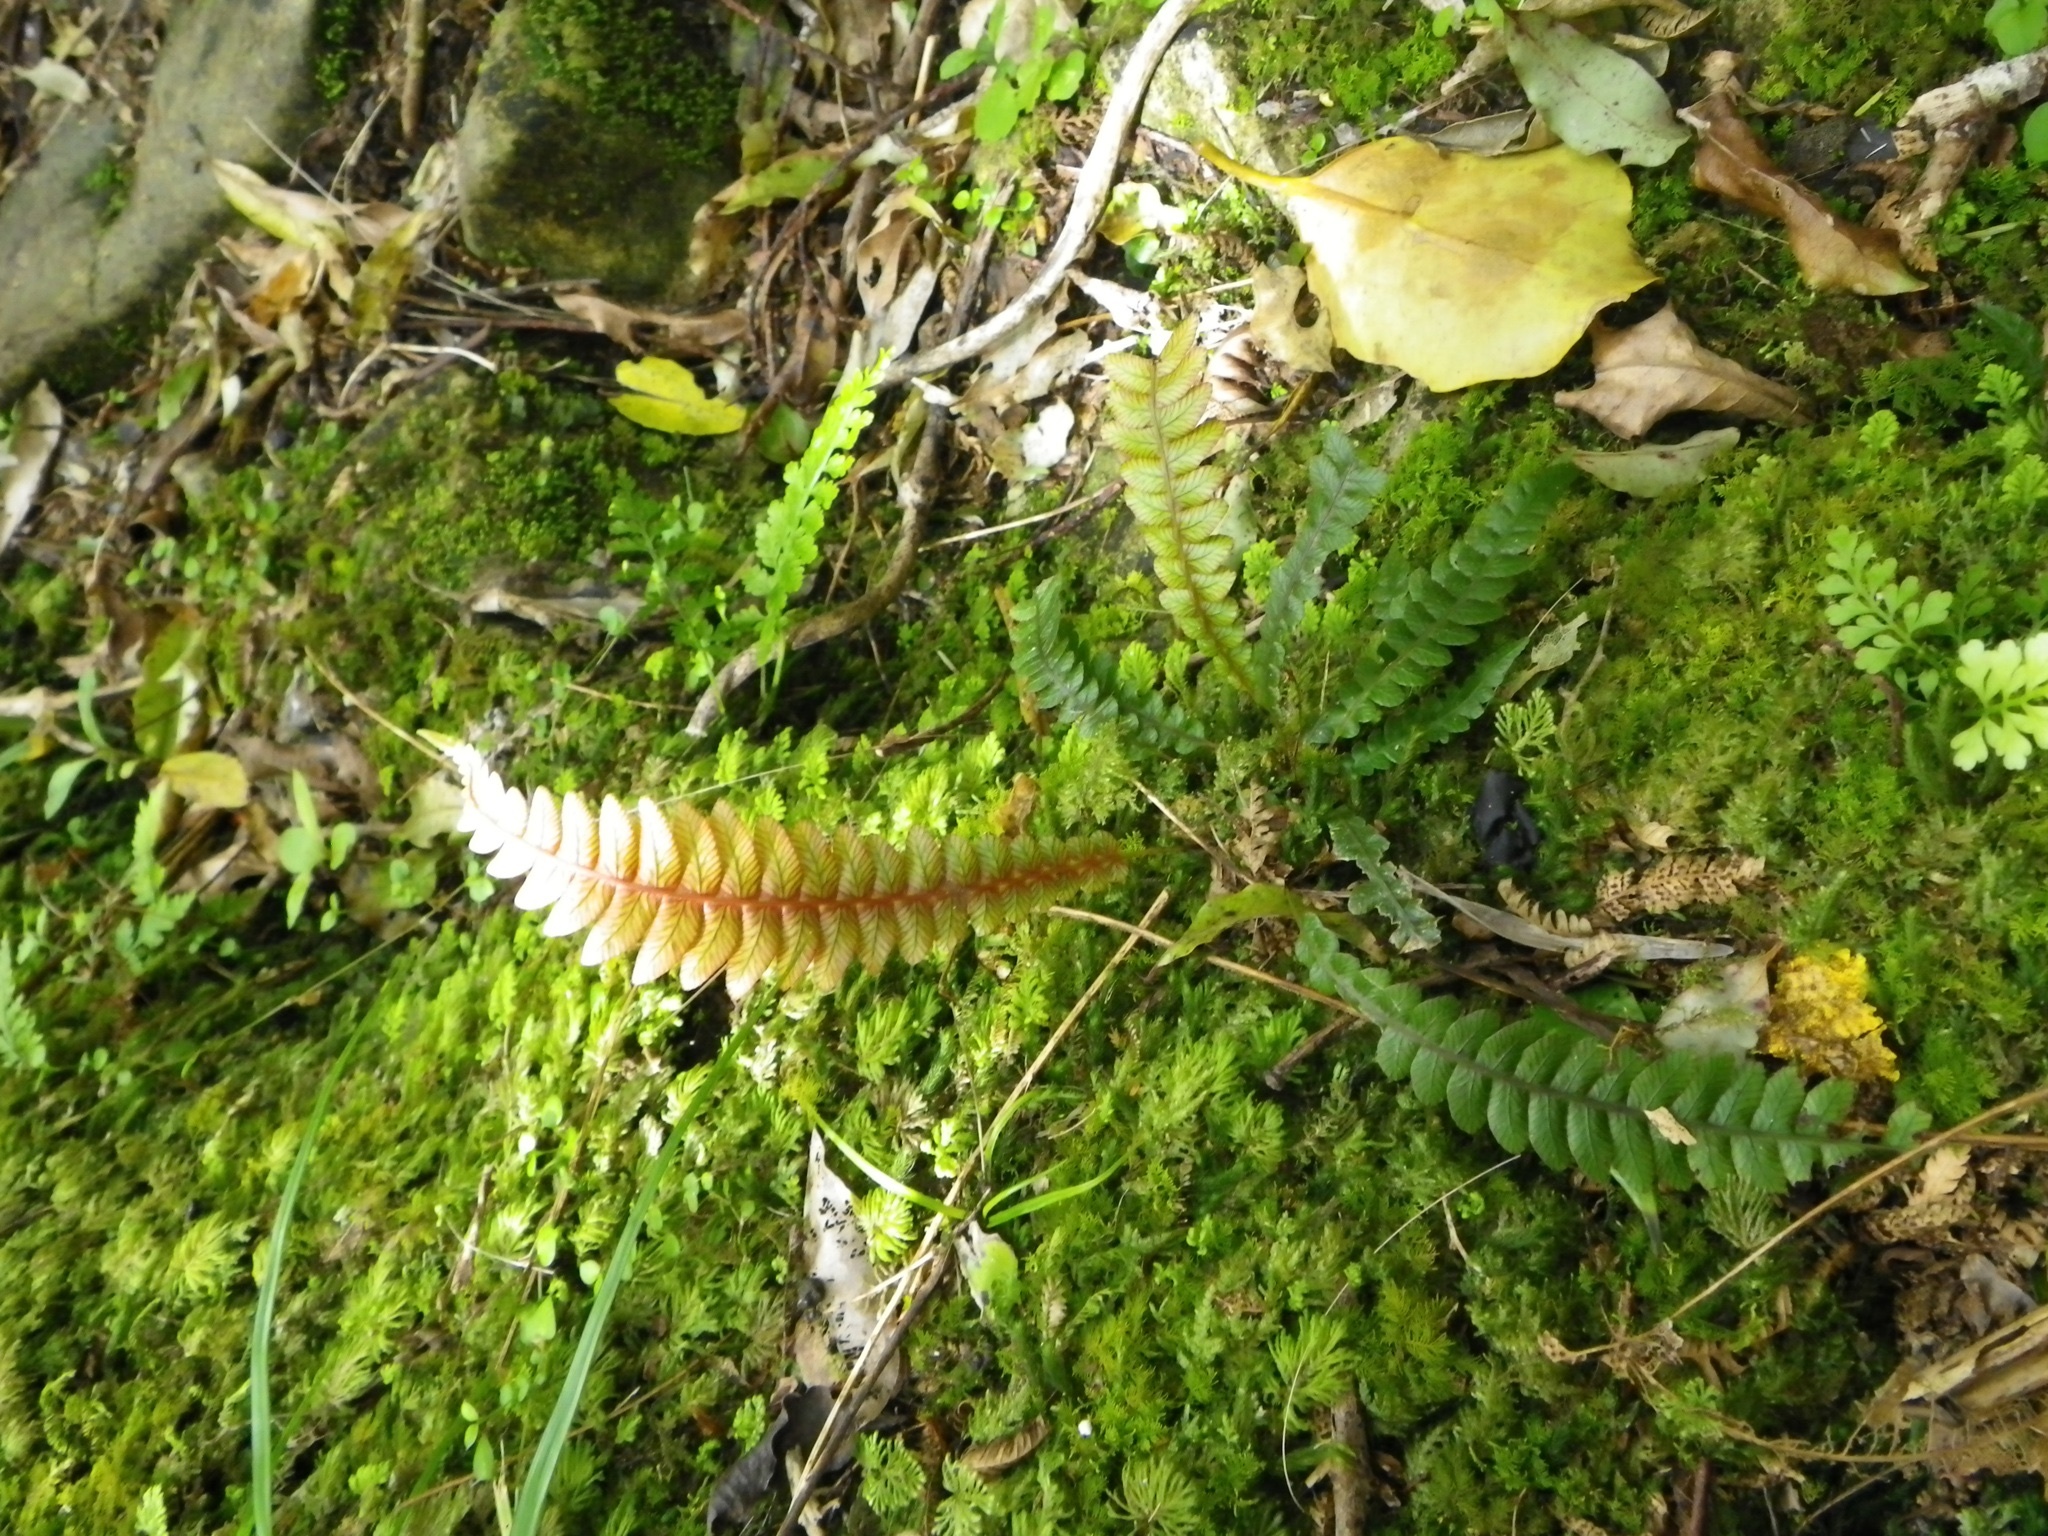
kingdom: Plantae
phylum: Tracheophyta
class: Polypodiopsida
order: Polypodiales
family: Blechnaceae
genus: Austroblechnum
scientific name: Austroblechnum lanceolatum
